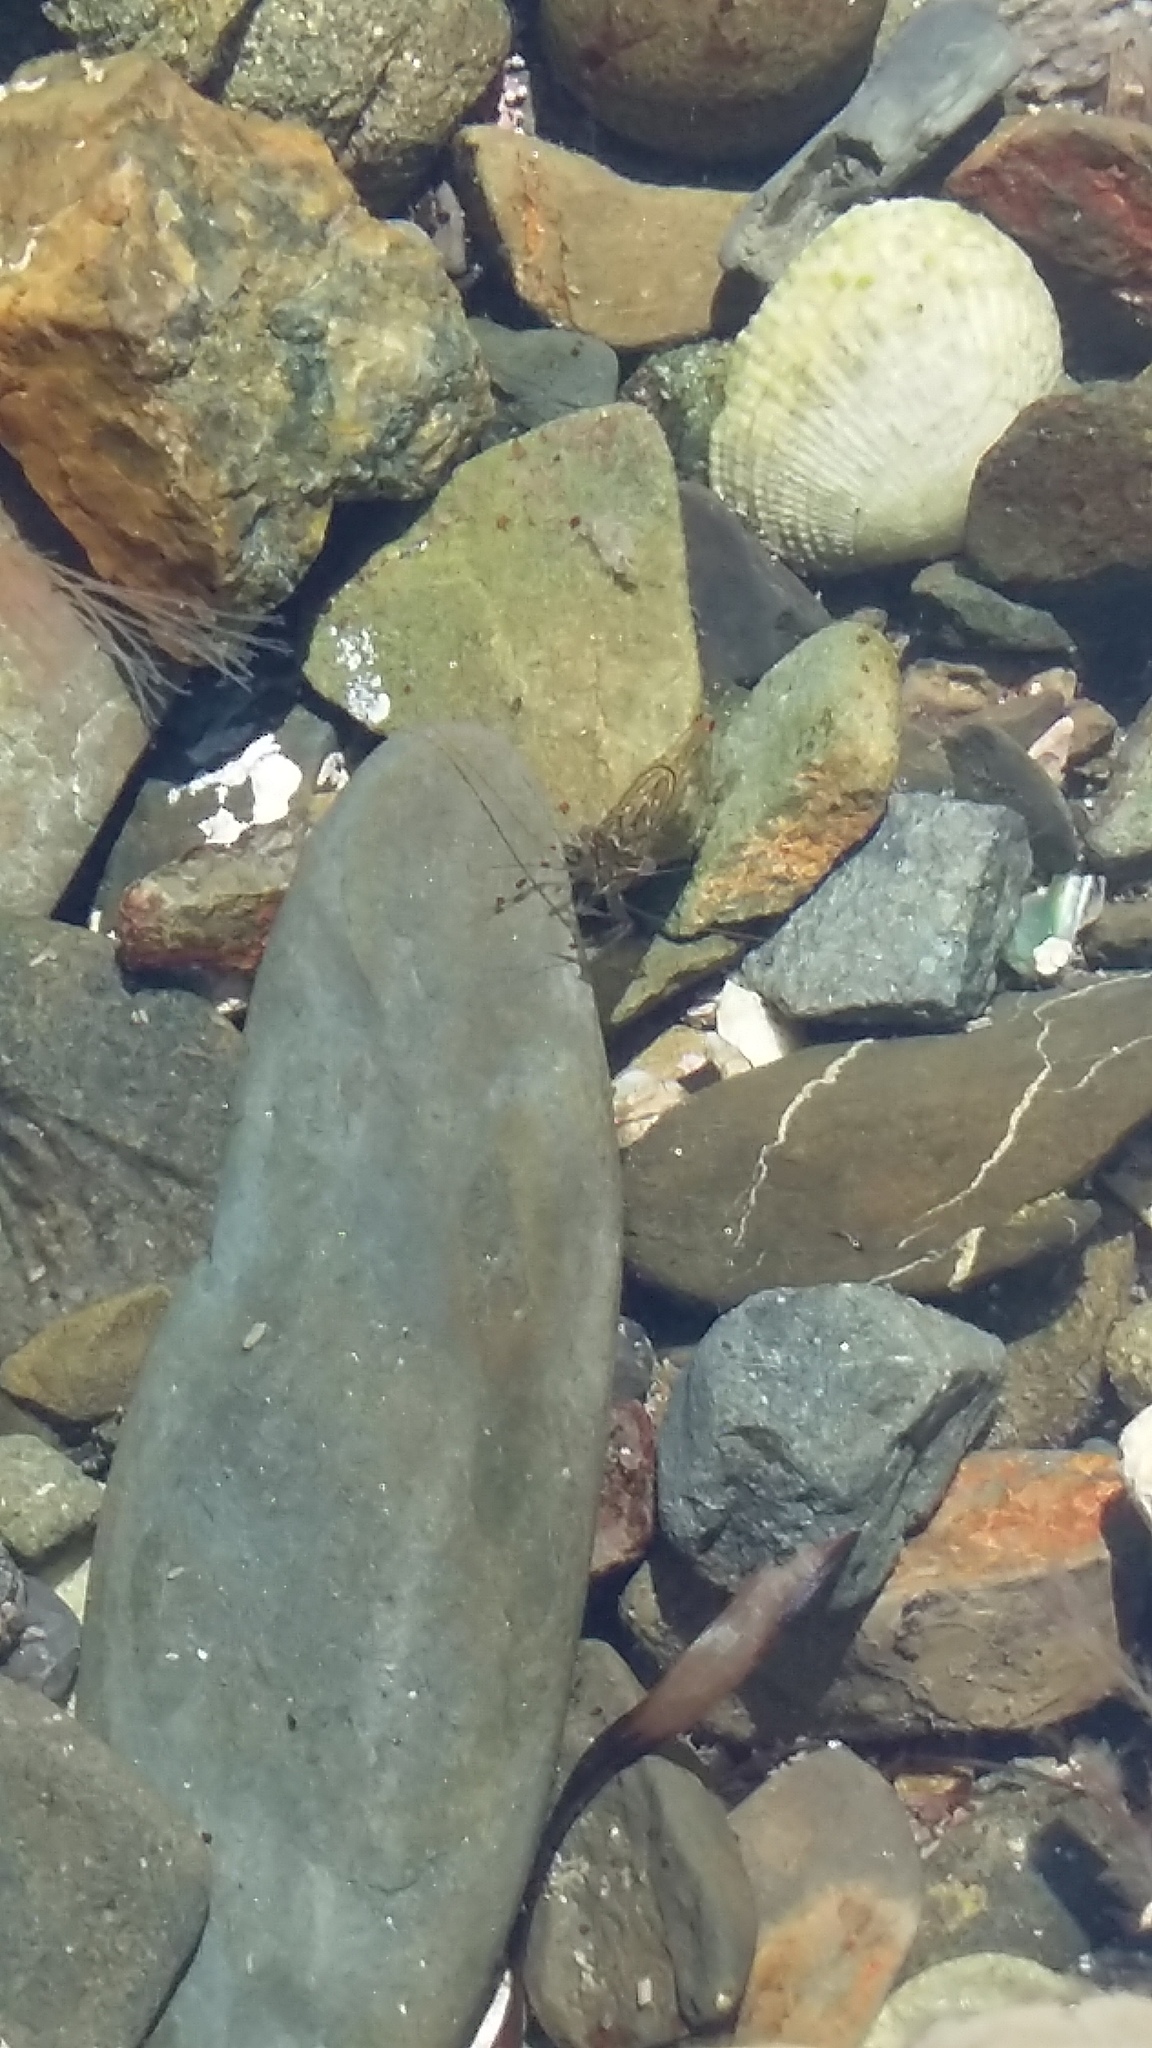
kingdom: Animalia
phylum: Arthropoda
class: Malacostraca
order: Decapoda
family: Palaemonidae
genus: Palaemon
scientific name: Palaemon affinis
